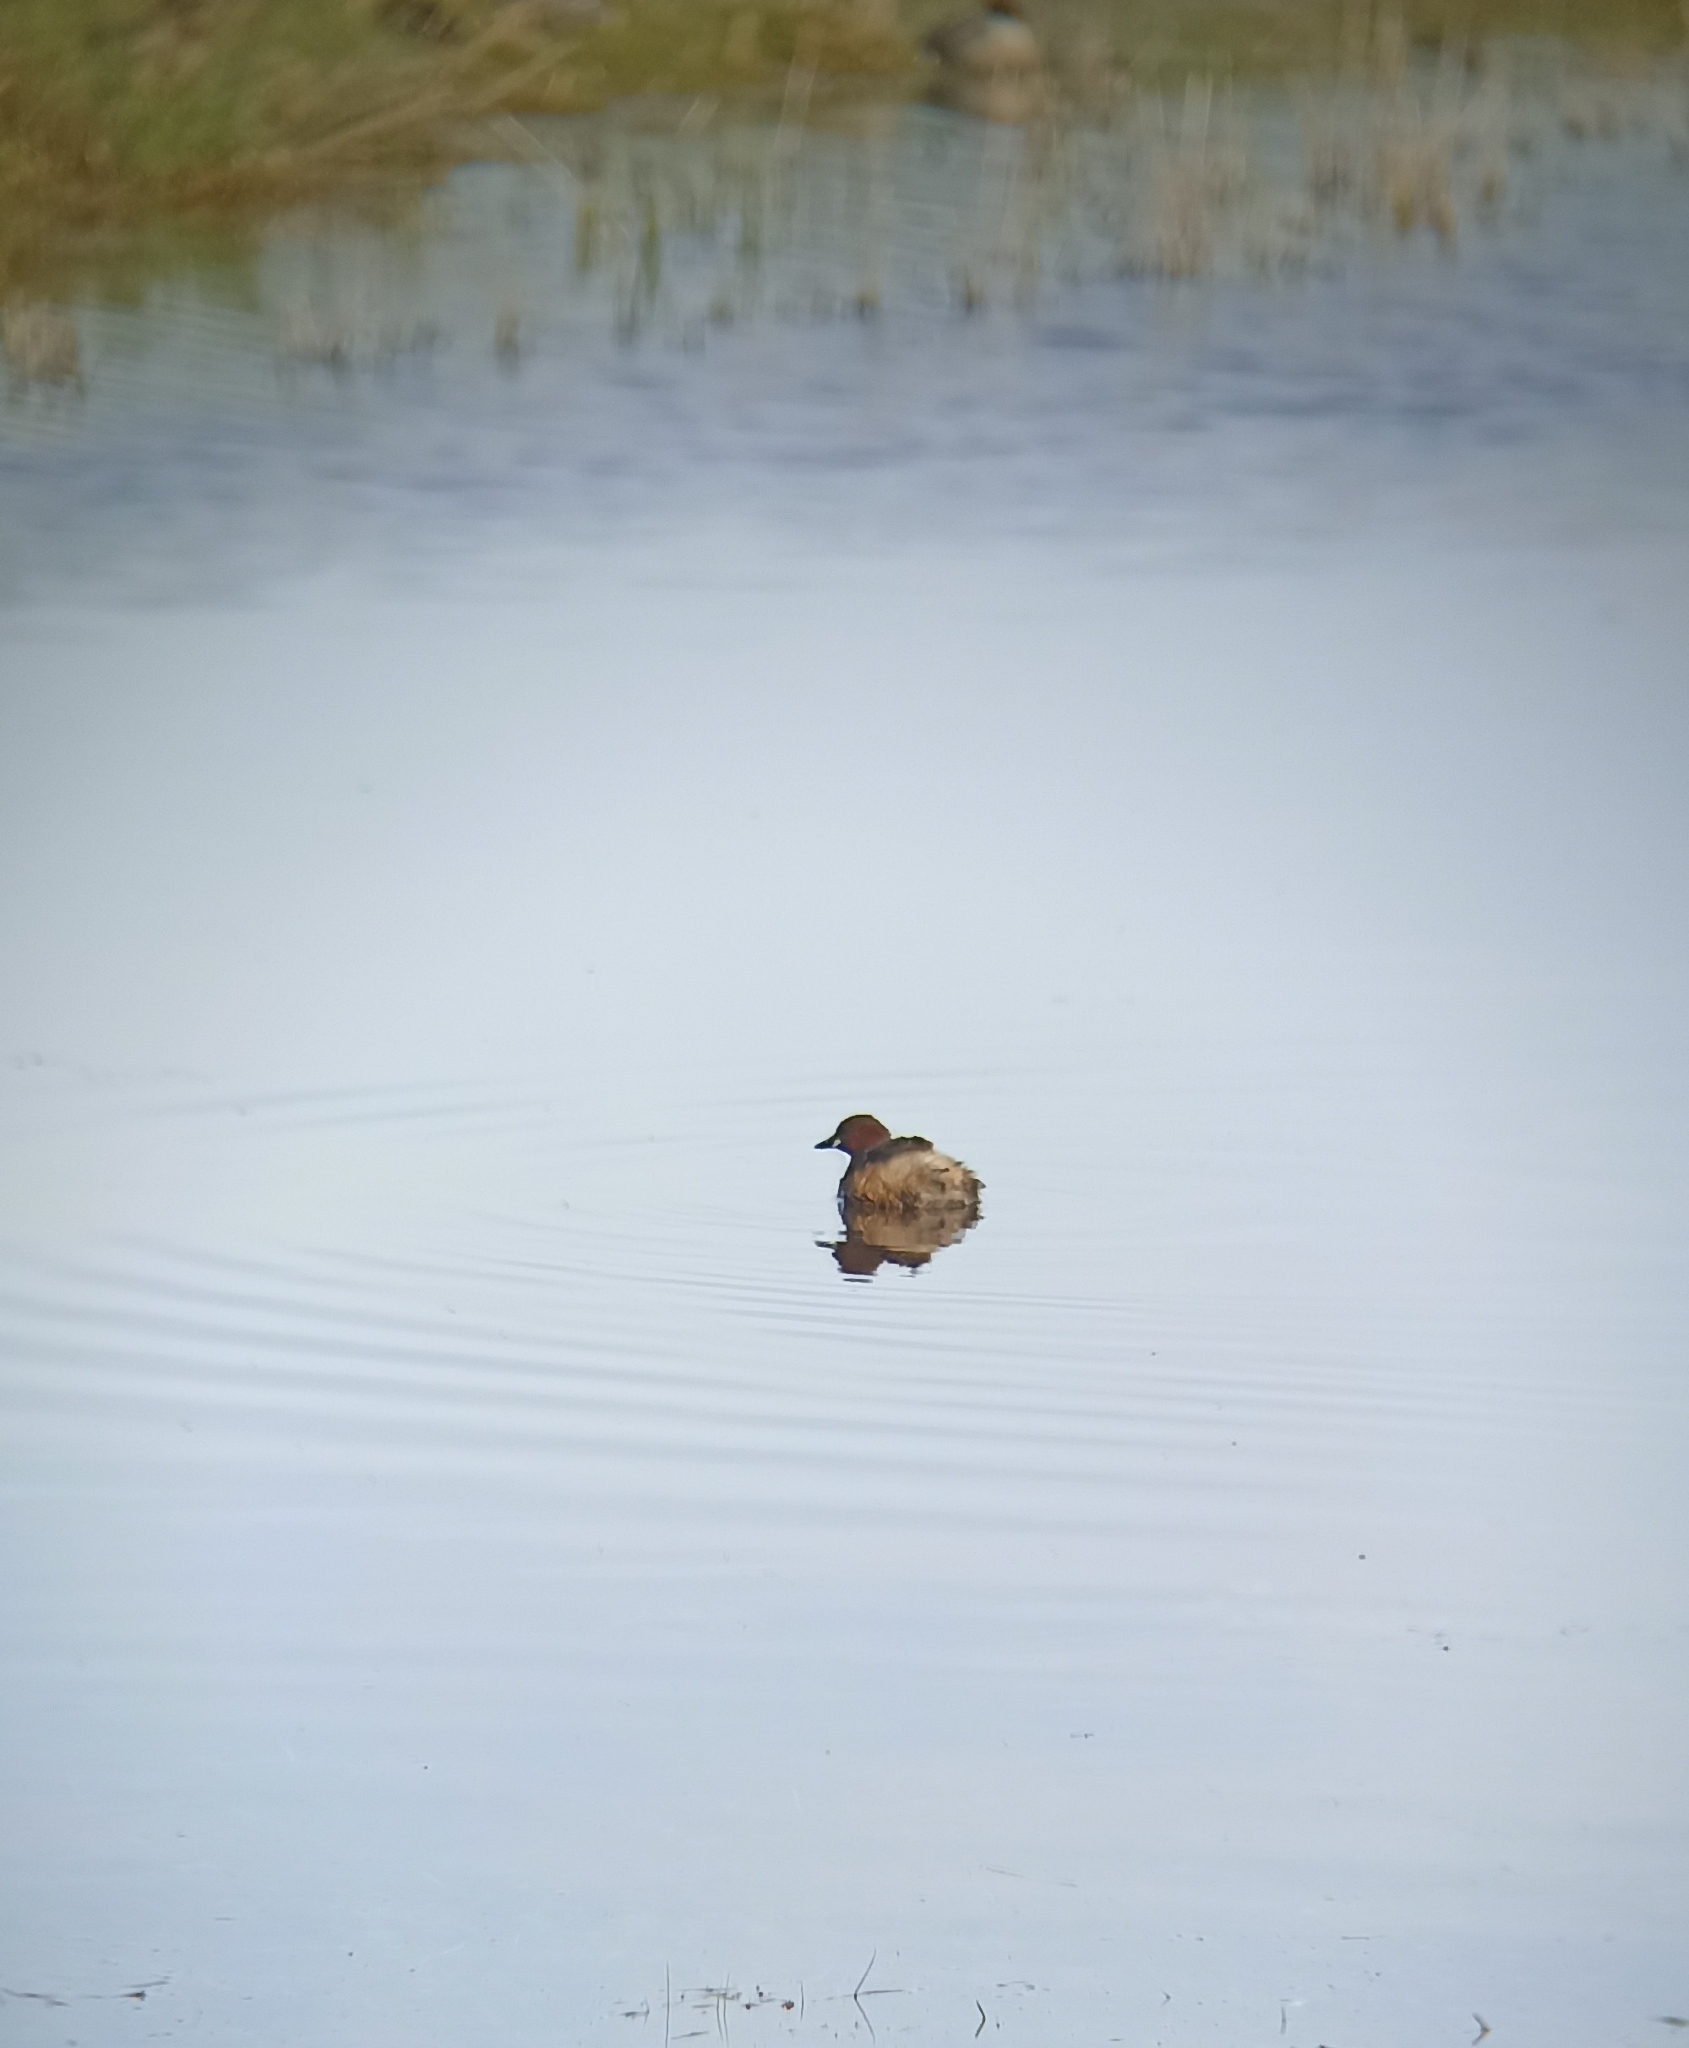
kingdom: Animalia
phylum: Chordata
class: Aves
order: Podicipediformes
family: Podicipedidae
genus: Tachybaptus
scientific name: Tachybaptus ruficollis
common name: Little grebe
